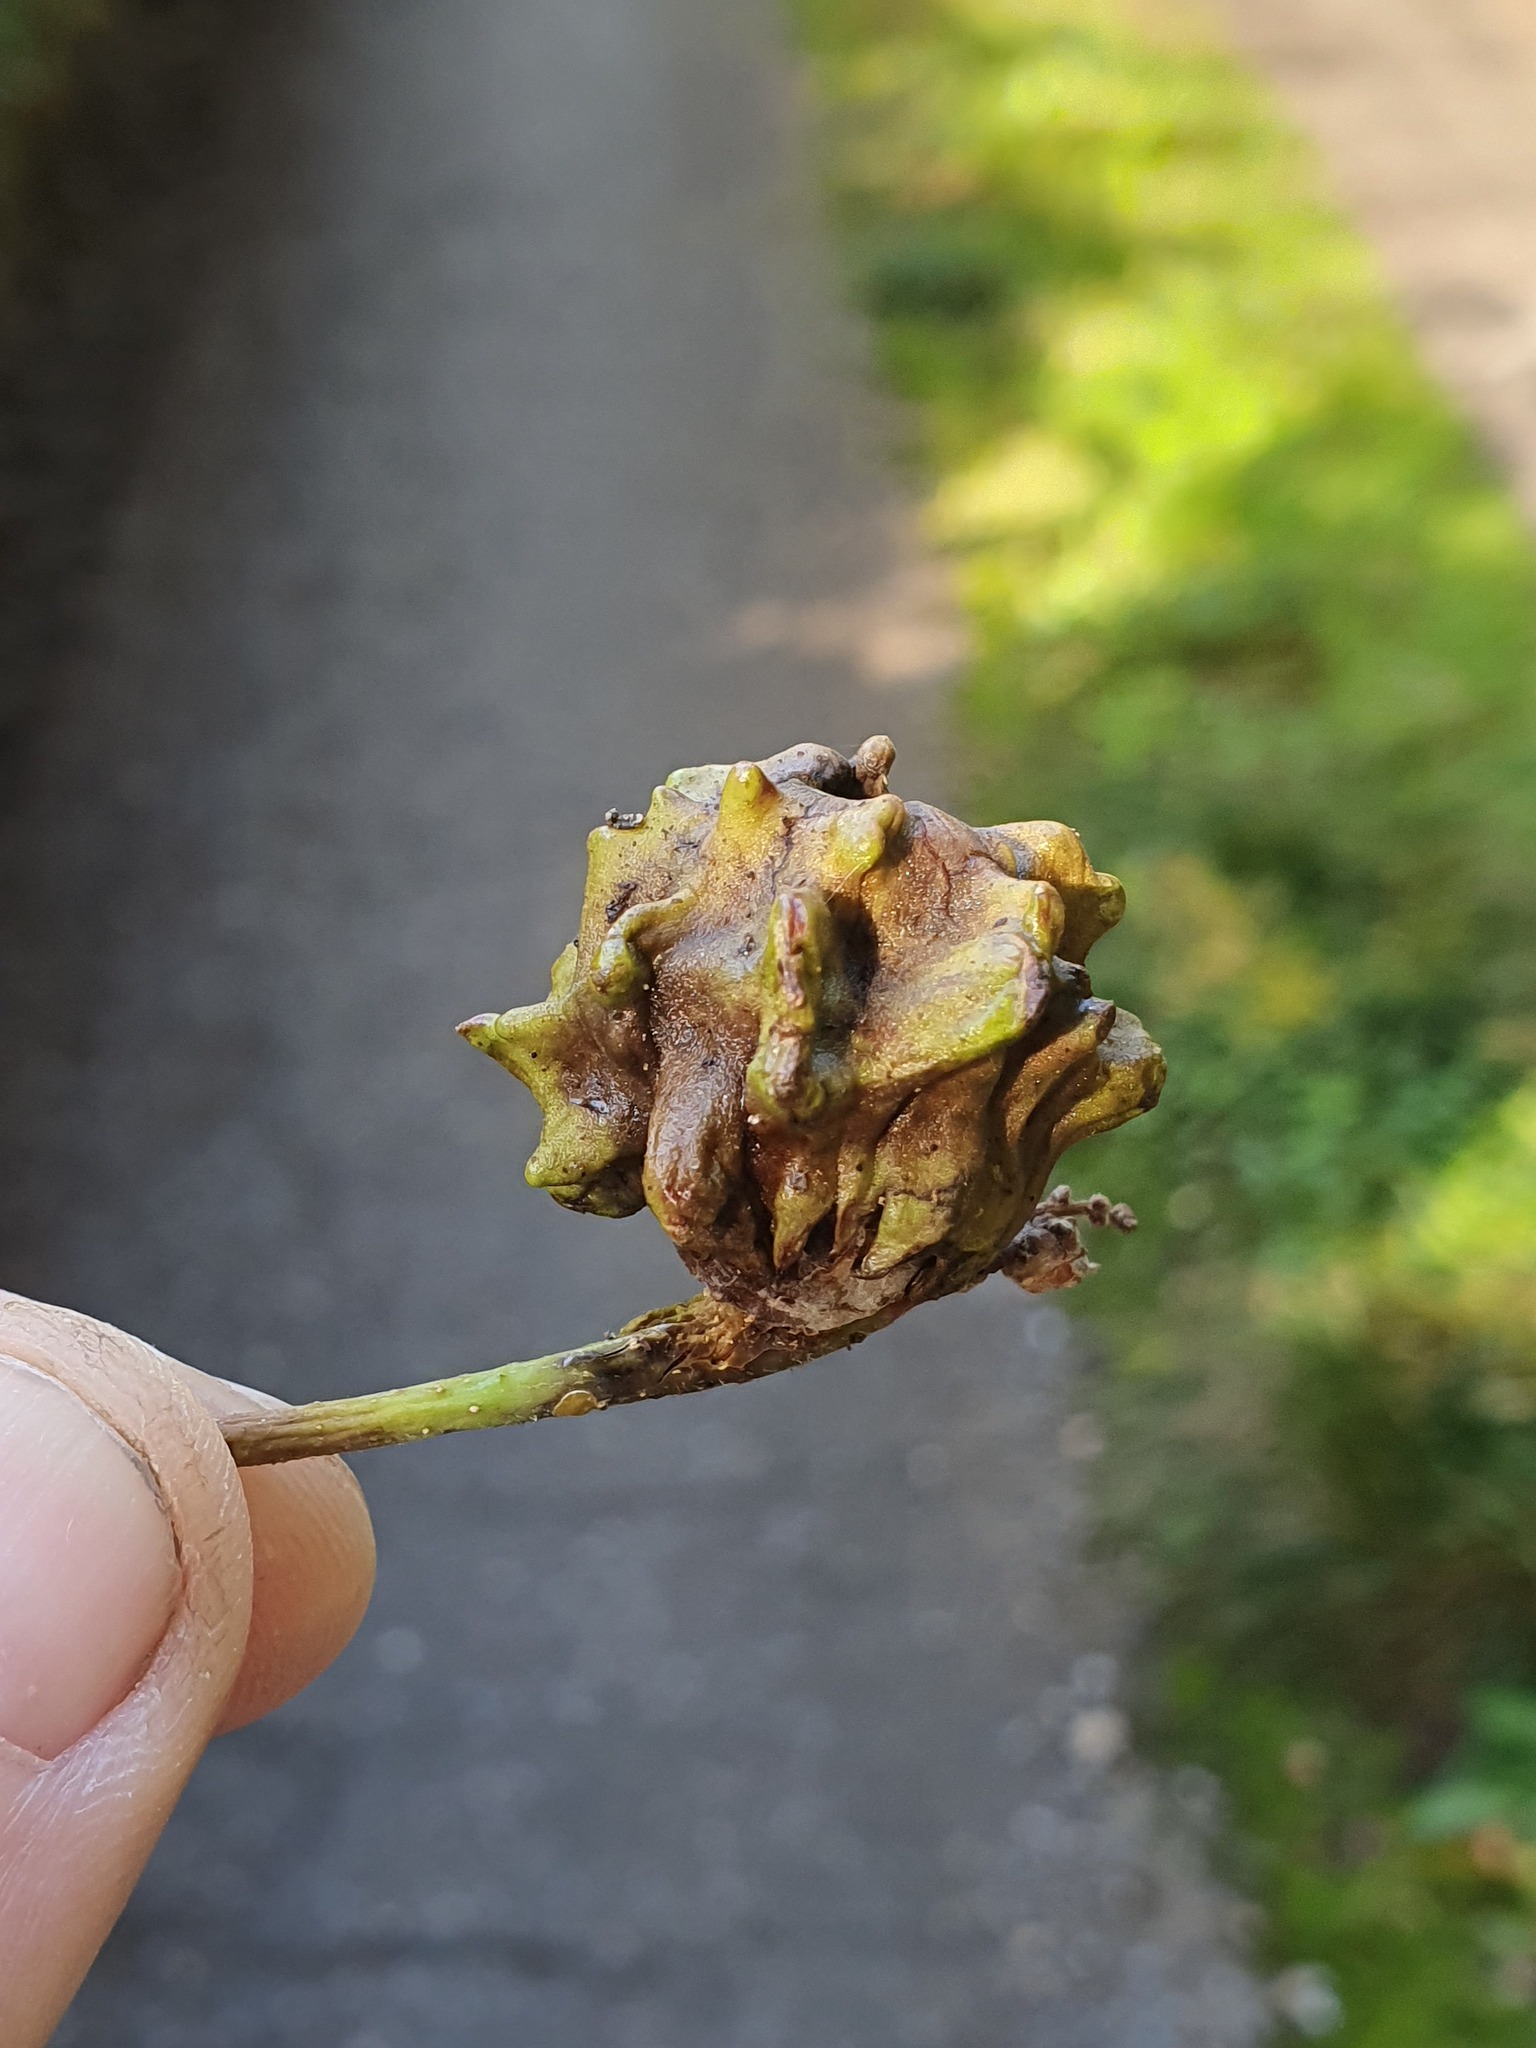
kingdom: Animalia
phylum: Arthropoda
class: Insecta
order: Hymenoptera
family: Cynipidae
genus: Andricus
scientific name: Andricus quercuscalicis
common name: Knopper gall
